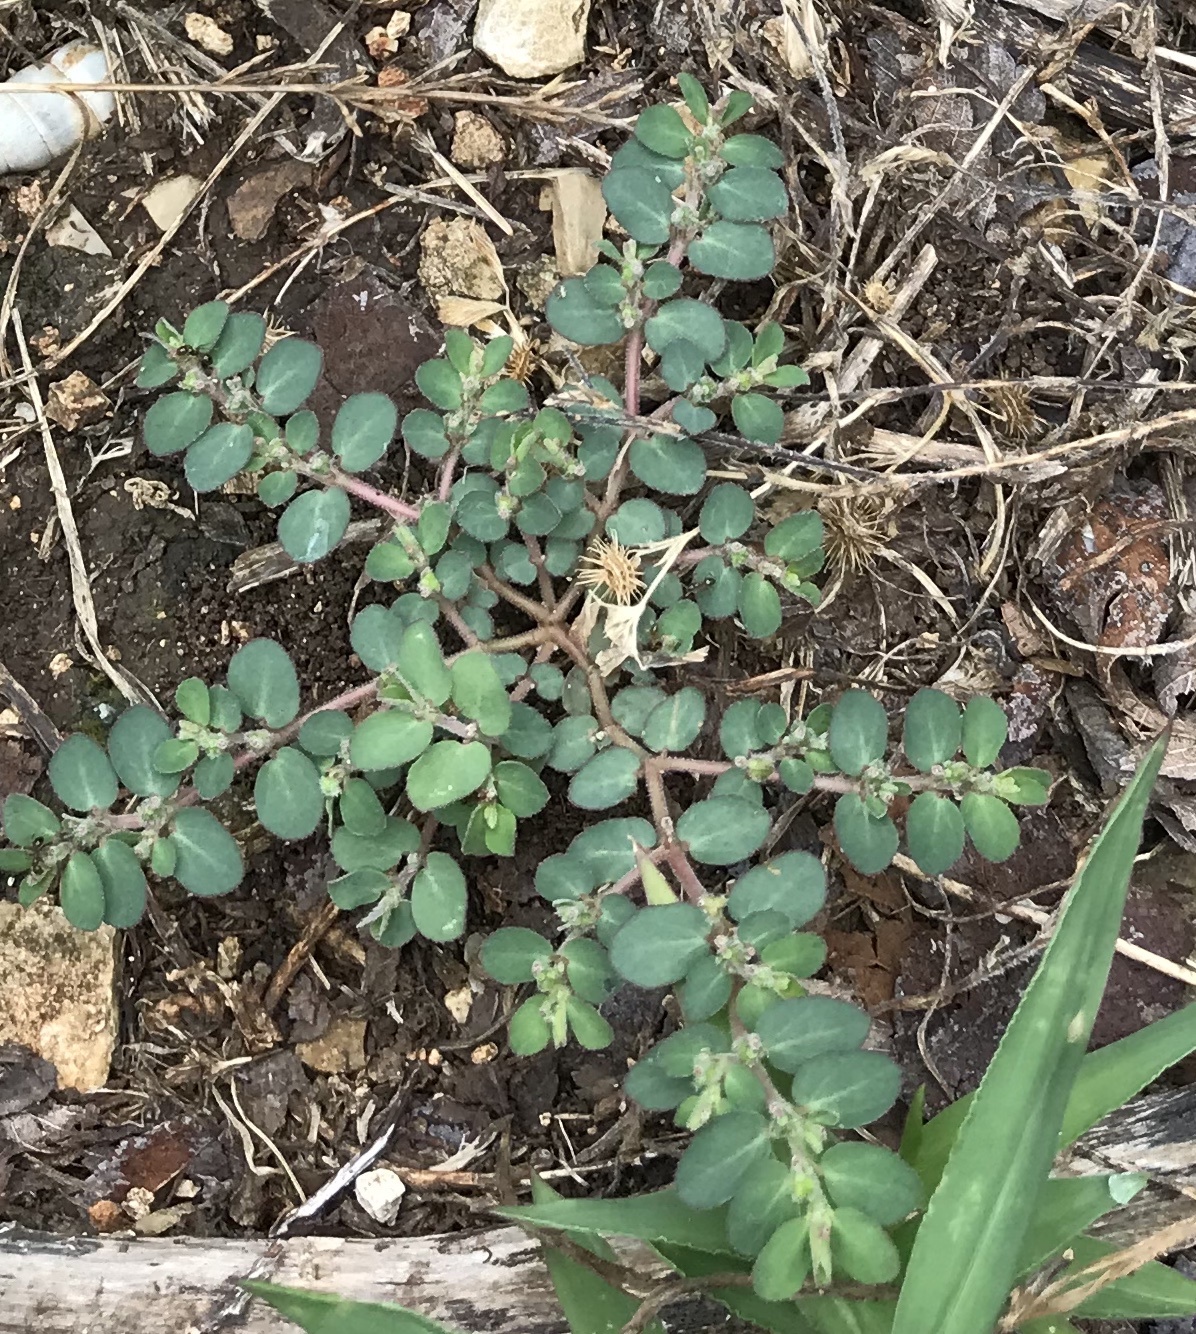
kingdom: Plantae
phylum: Tracheophyta
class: Magnoliopsida
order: Malpighiales
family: Euphorbiaceae
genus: Euphorbia
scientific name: Euphorbia prostrata
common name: Prostrate sandmat
